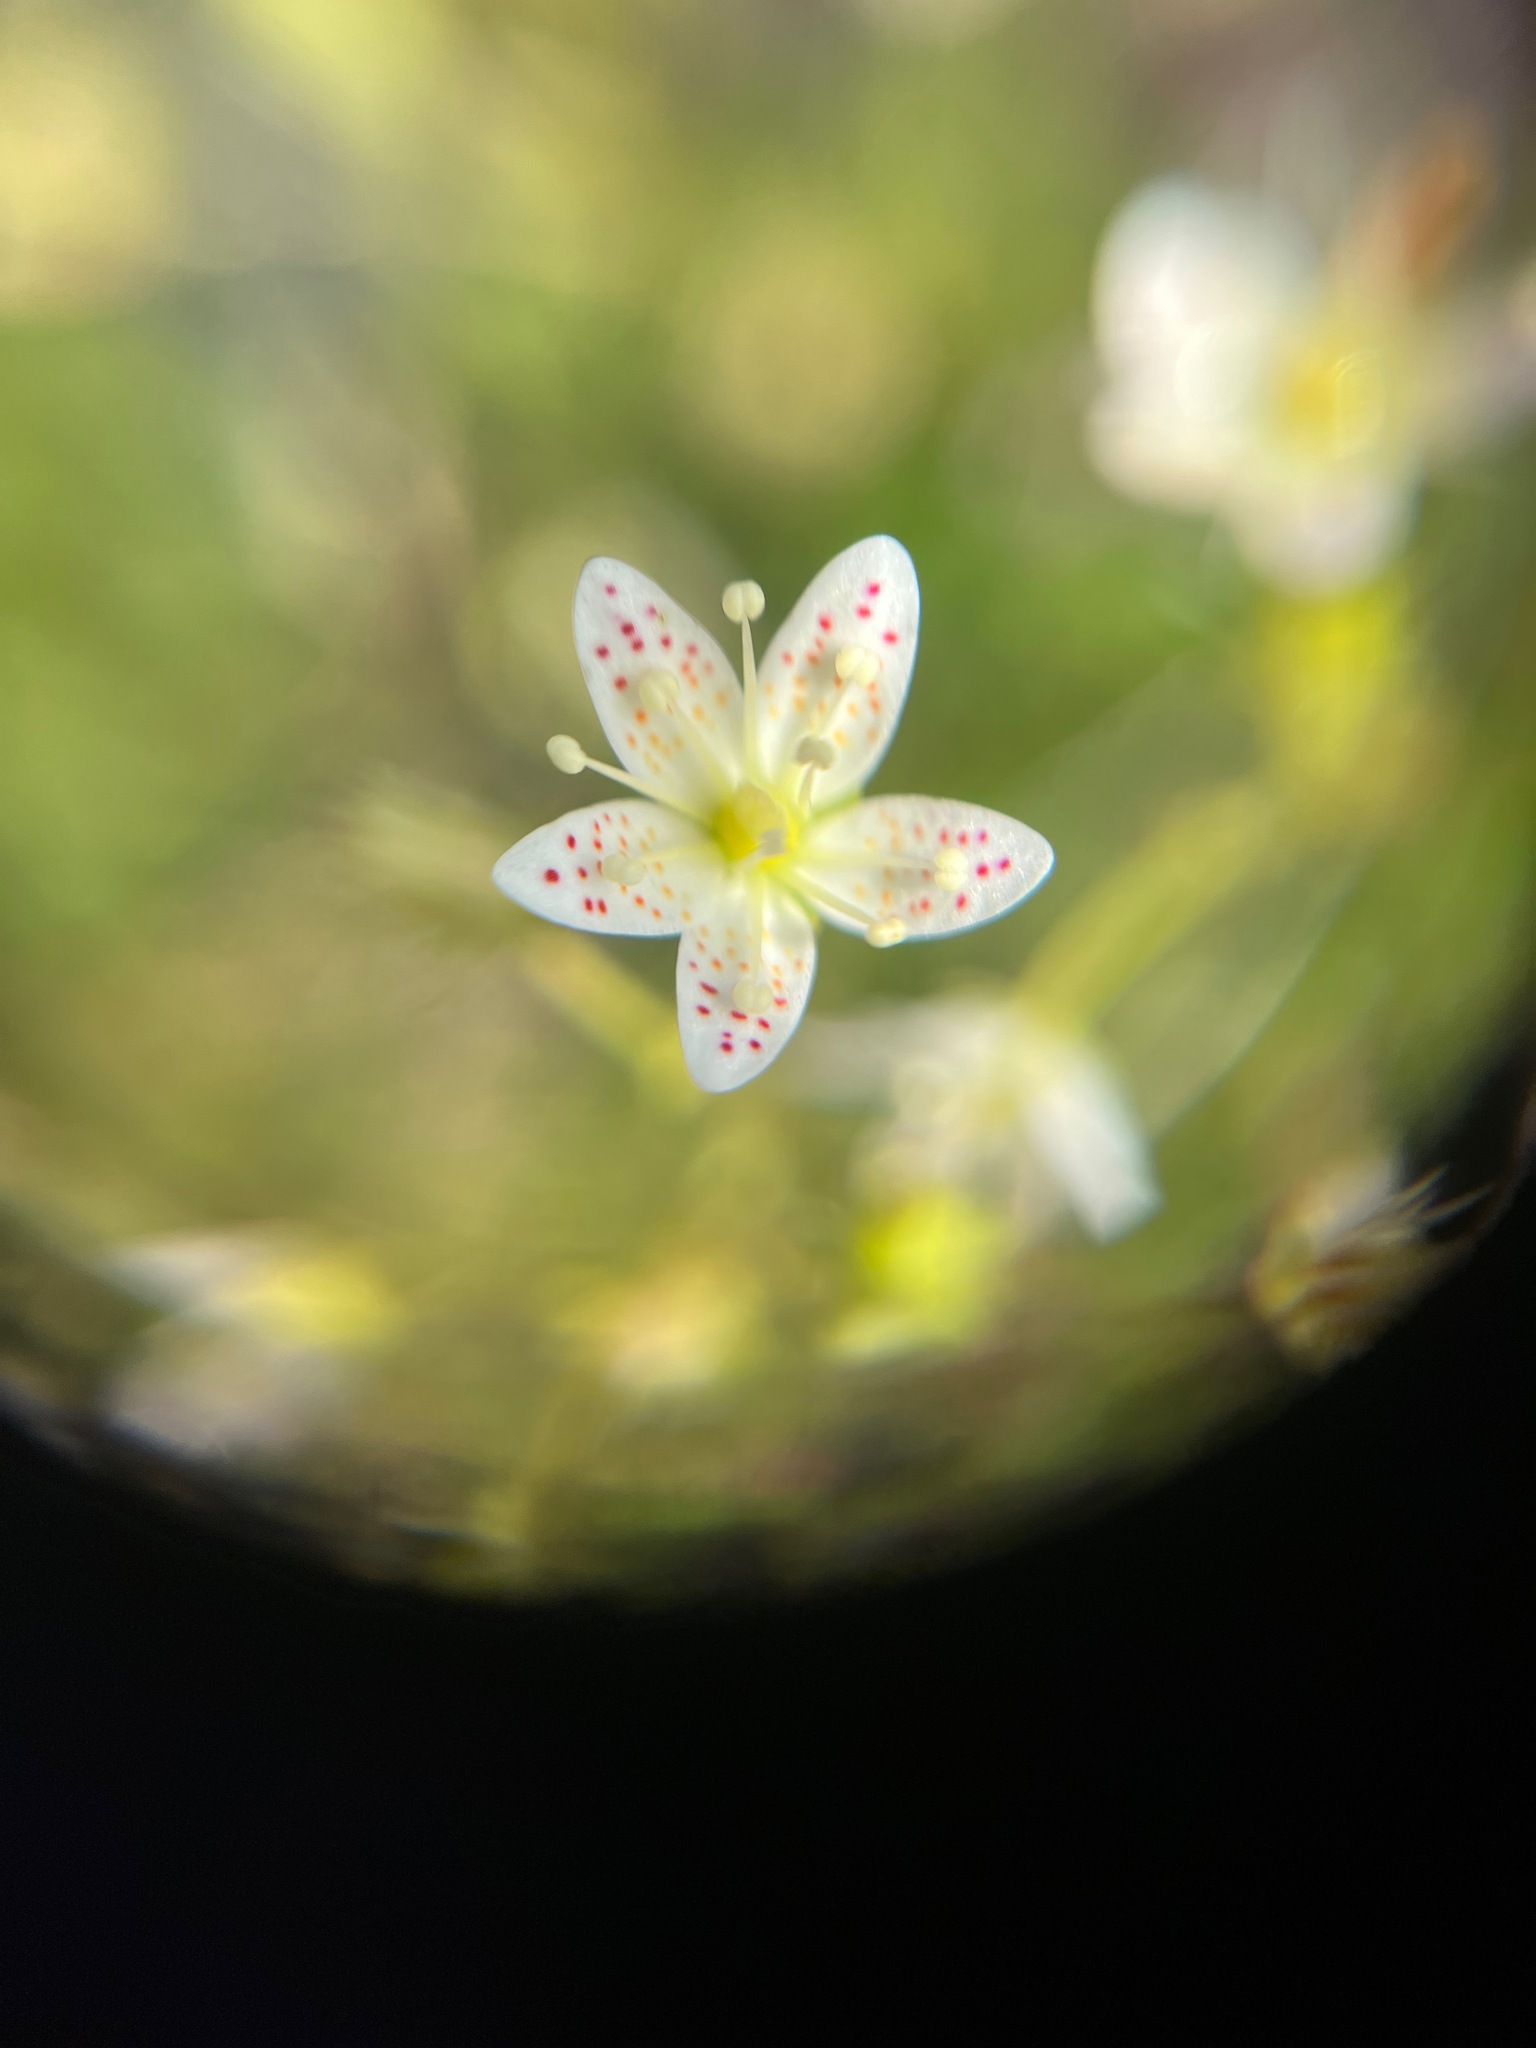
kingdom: Plantae
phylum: Tracheophyta
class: Magnoliopsida
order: Saxifragales
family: Saxifragaceae
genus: Saxifraga
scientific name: Saxifraga tricuspidata
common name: Prickly saxifrage
